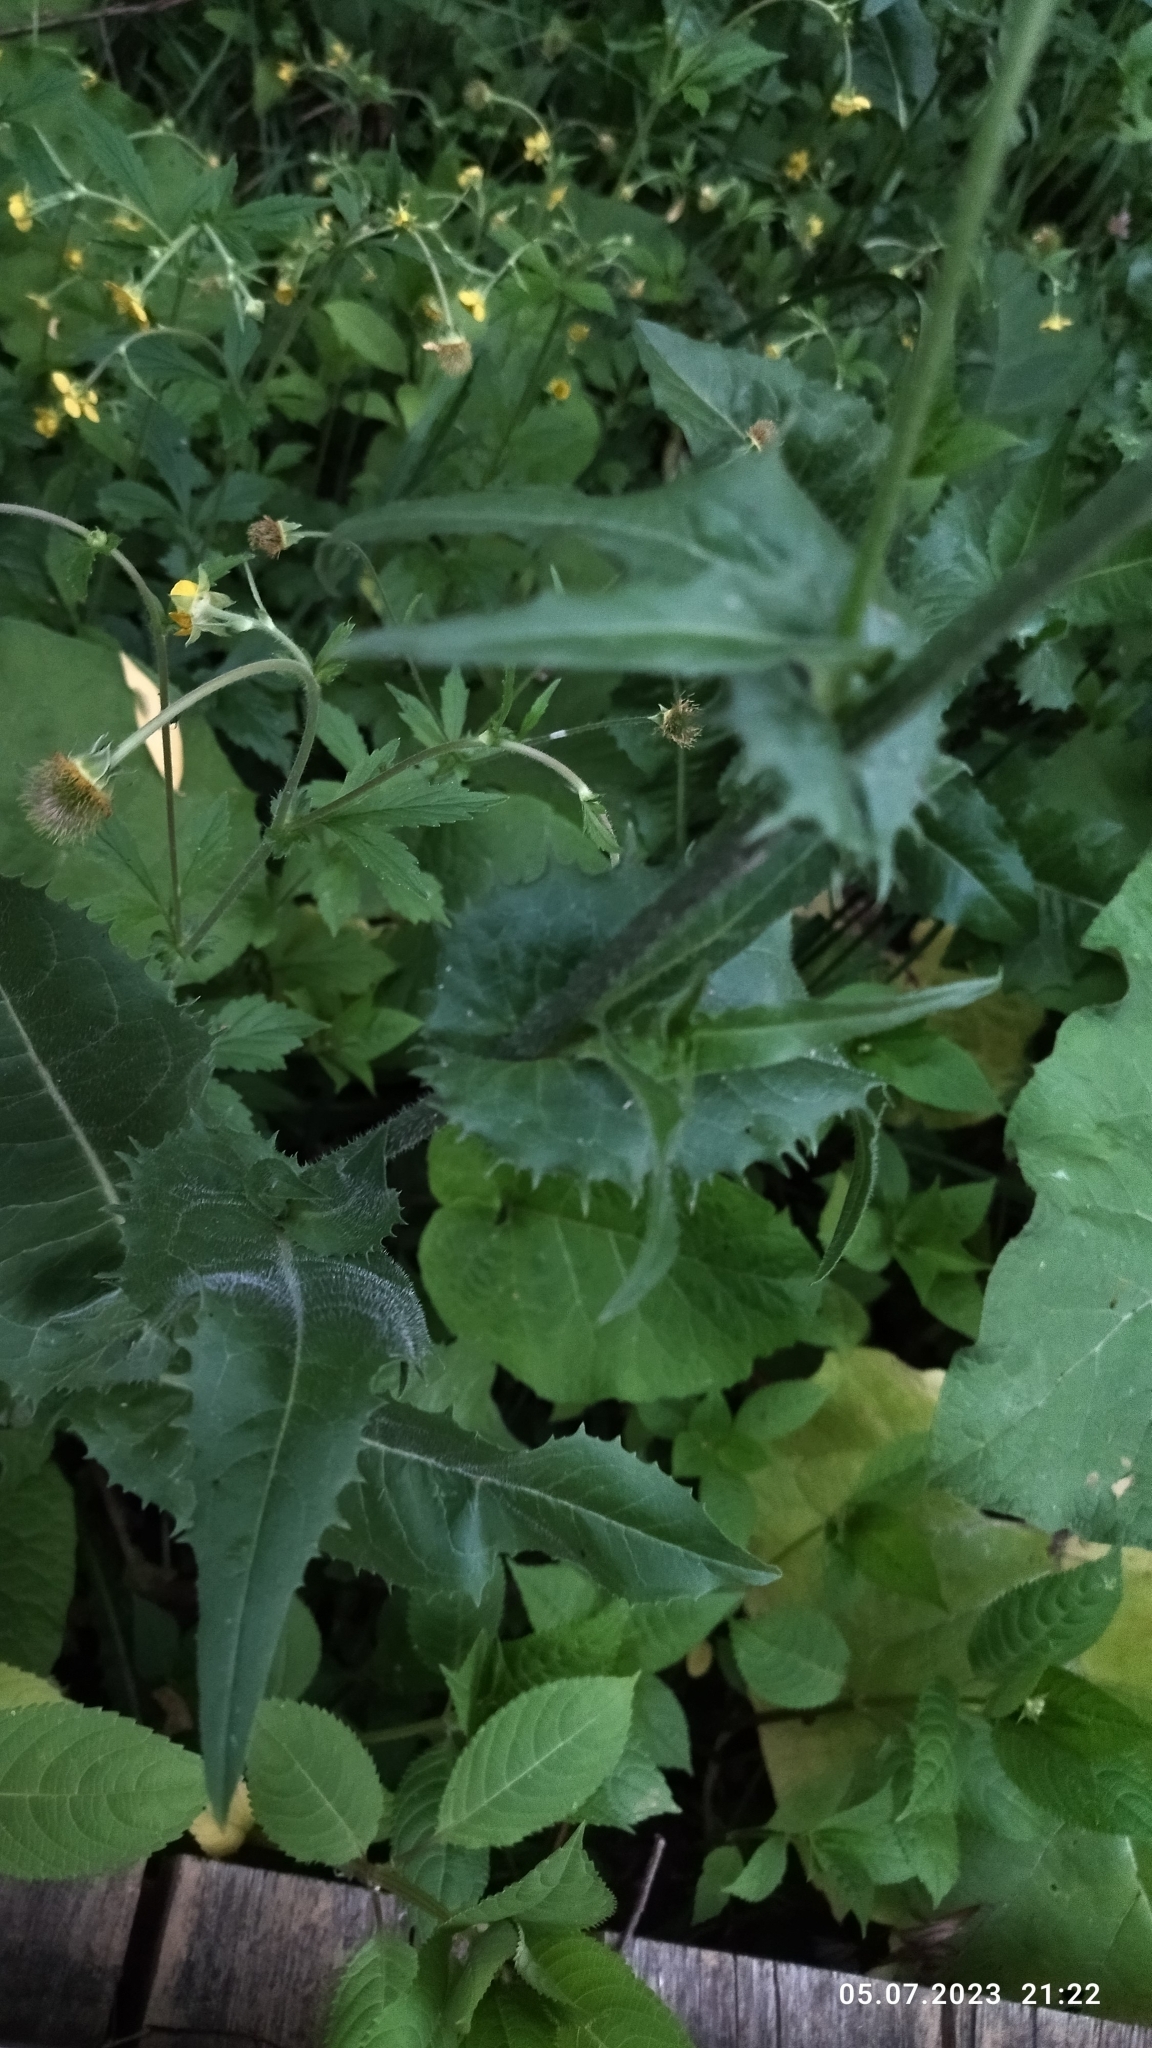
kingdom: Plantae
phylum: Tracheophyta
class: Magnoliopsida
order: Asterales
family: Asteraceae
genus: Cichorium
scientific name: Cichorium intybus
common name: Chicory
